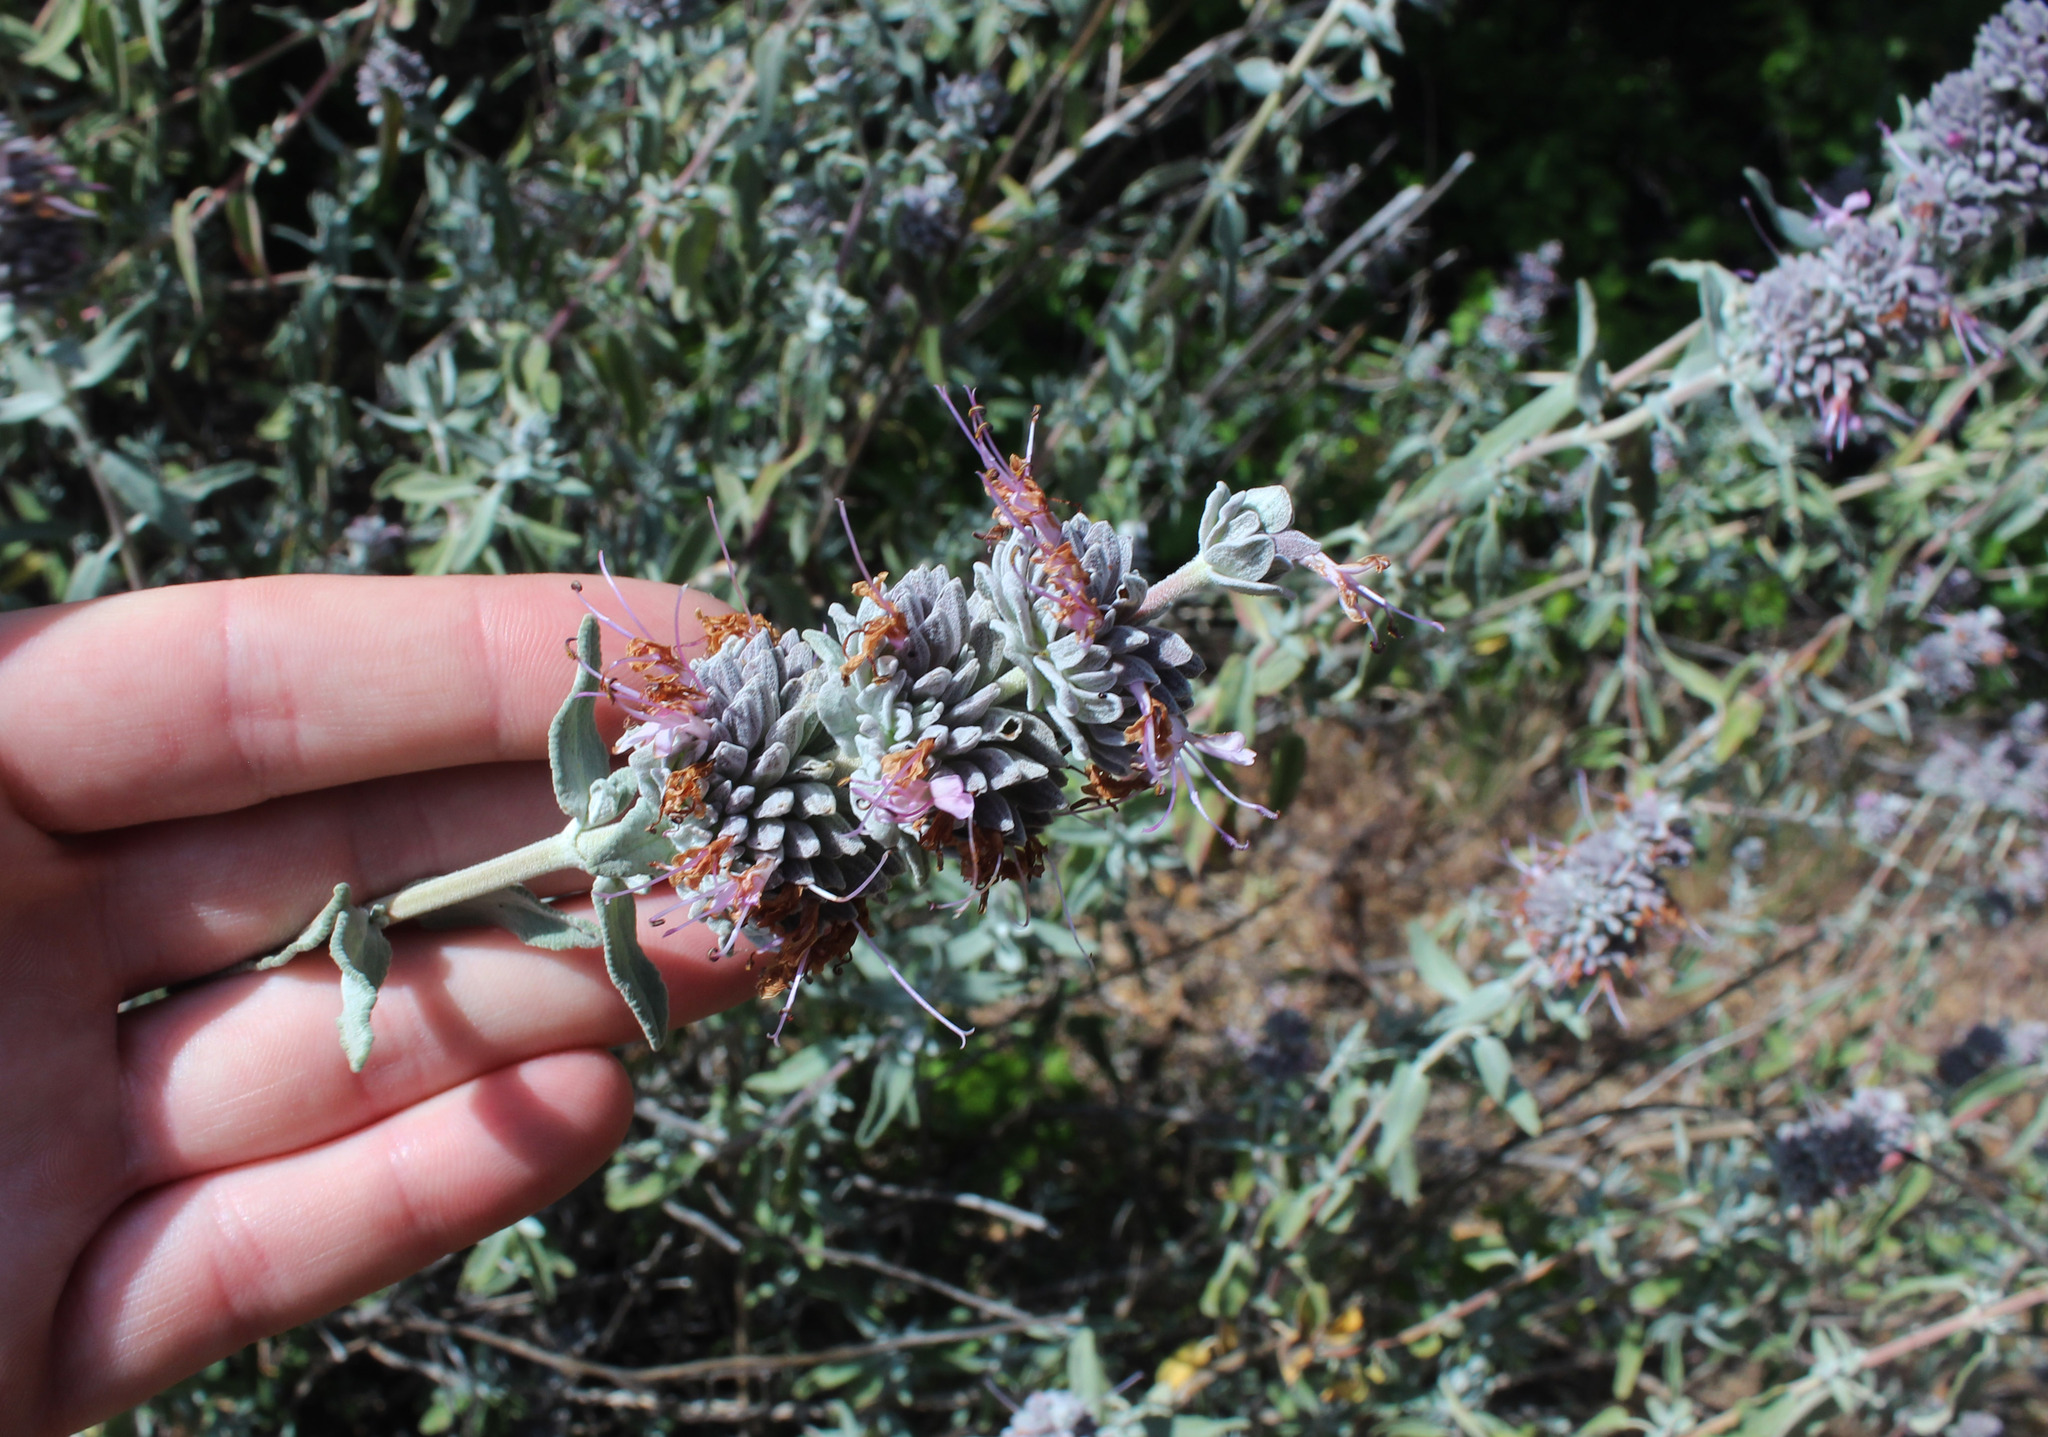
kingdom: Plantae
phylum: Tracheophyta
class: Magnoliopsida
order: Lamiales
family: Lamiaceae
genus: Salvia
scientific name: Salvia leucophylla
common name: Purple sage
